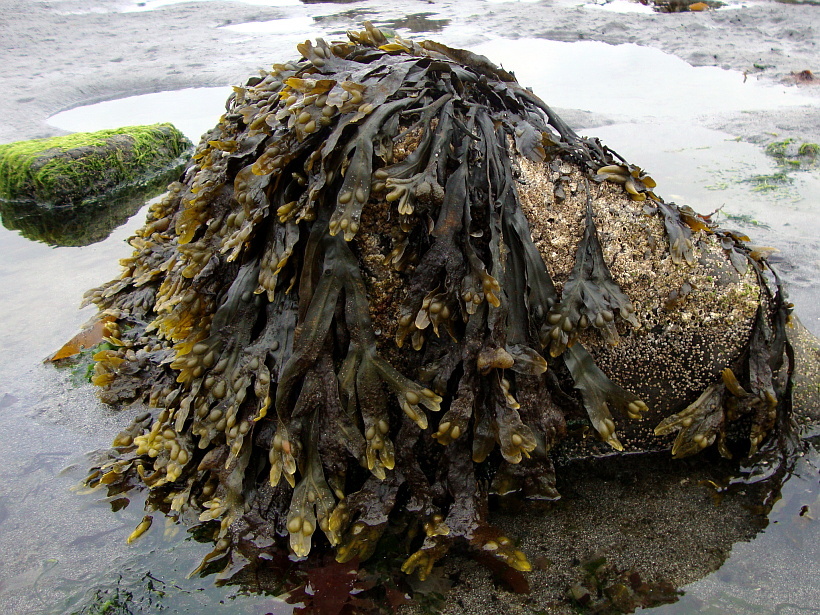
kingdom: Chromista
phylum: Ochrophyta
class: Phaeophyceae
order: Fucales
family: Fucaceae
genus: Fucus
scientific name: Fucus vesiculosus
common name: Bladder wrack
